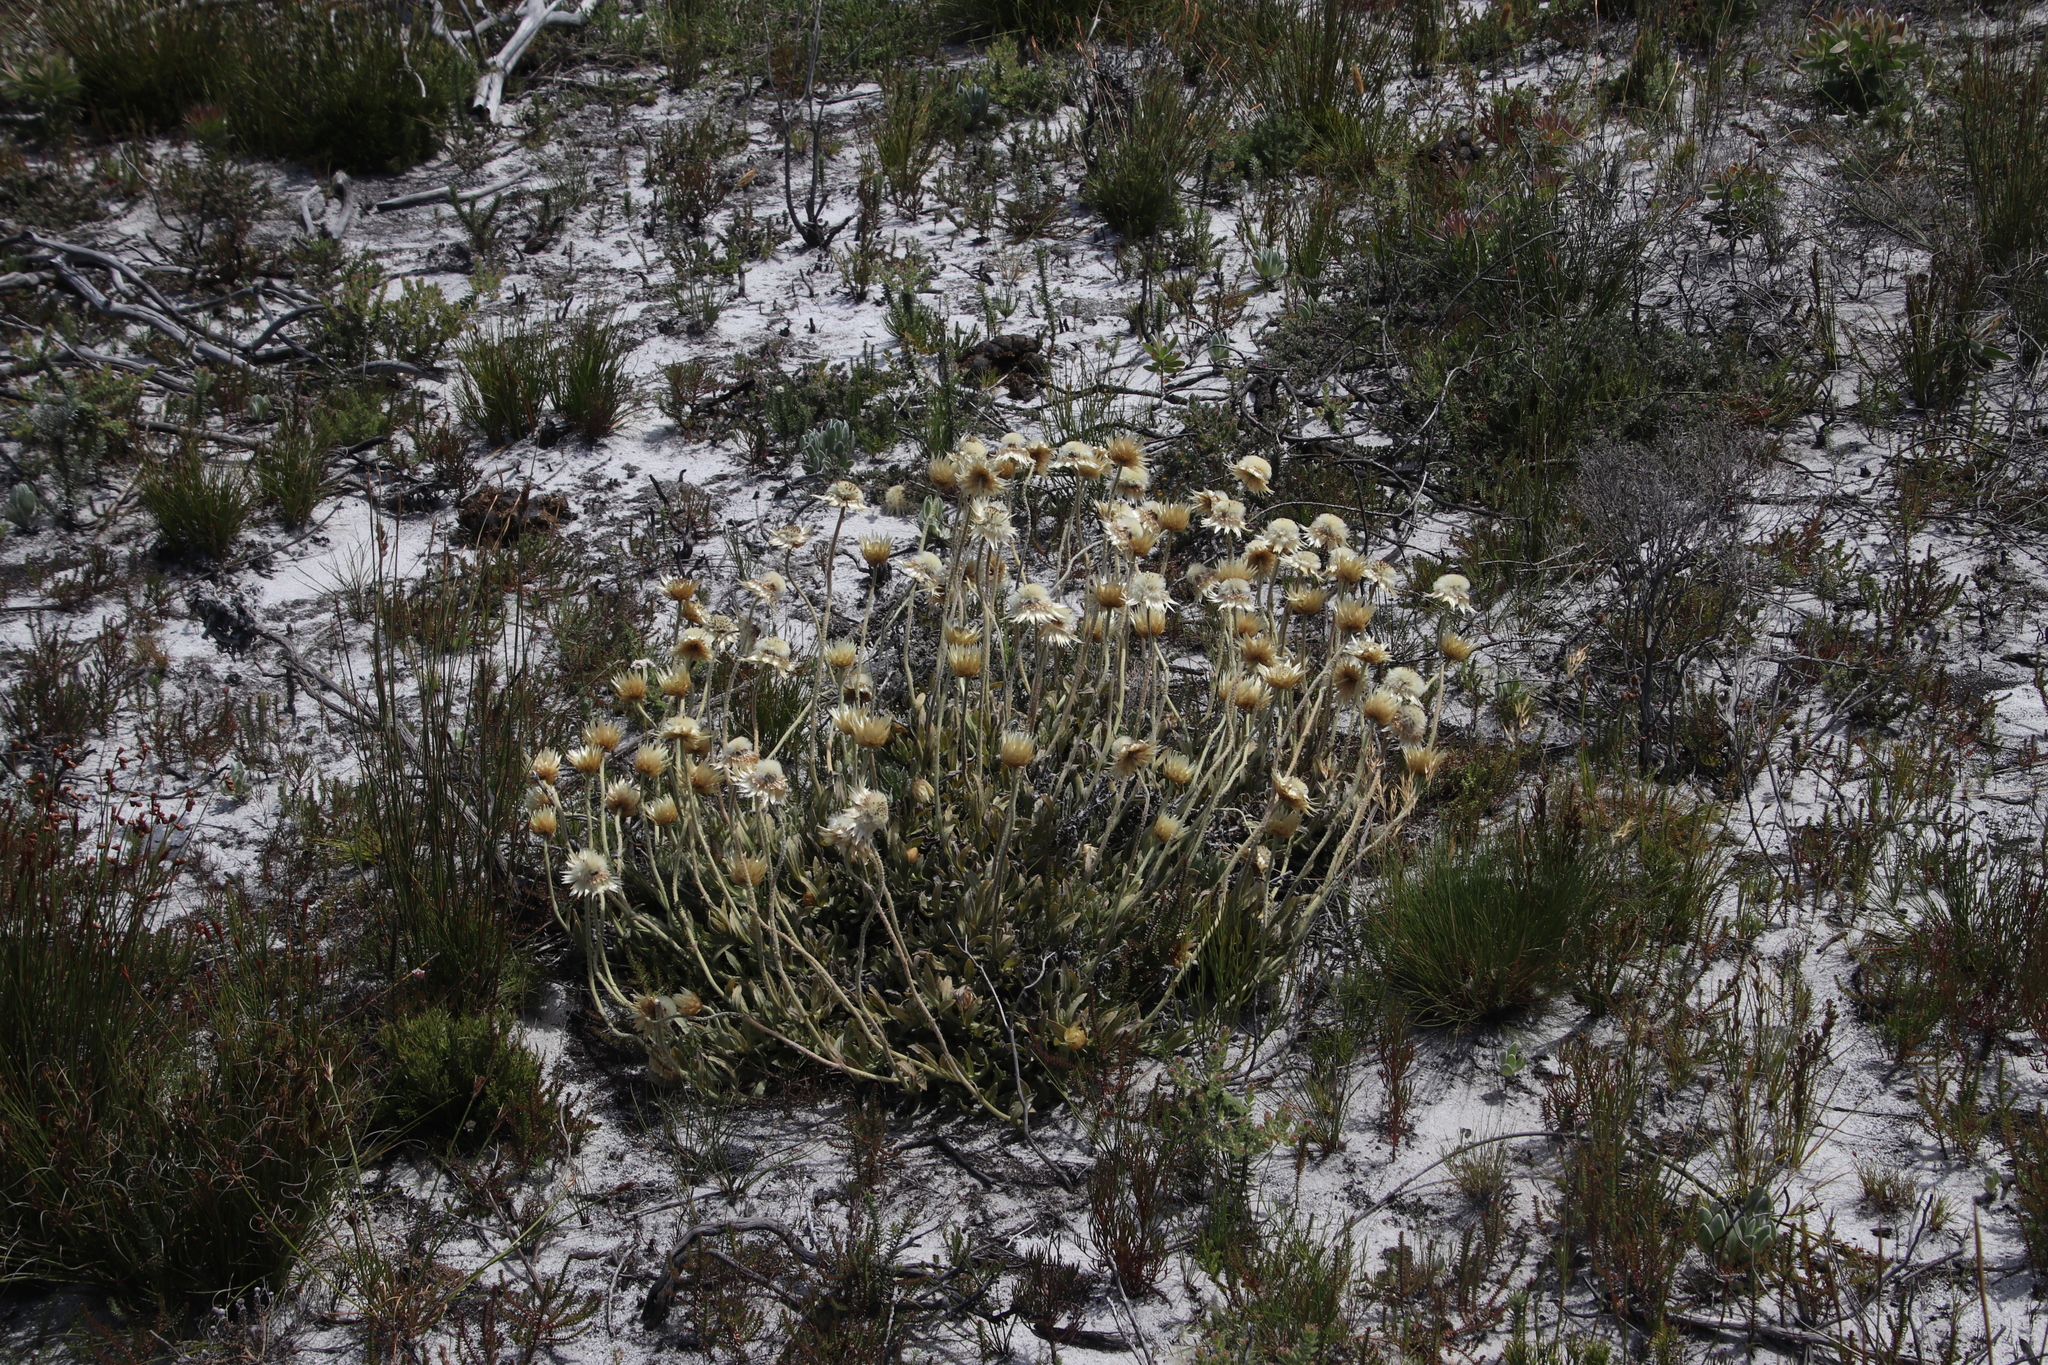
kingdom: Plantae
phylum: Tracheophyta
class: Magnoliopsida
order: Asterales
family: Asteraceae
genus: Syncarpha
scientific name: Syncarpha speciosissima
